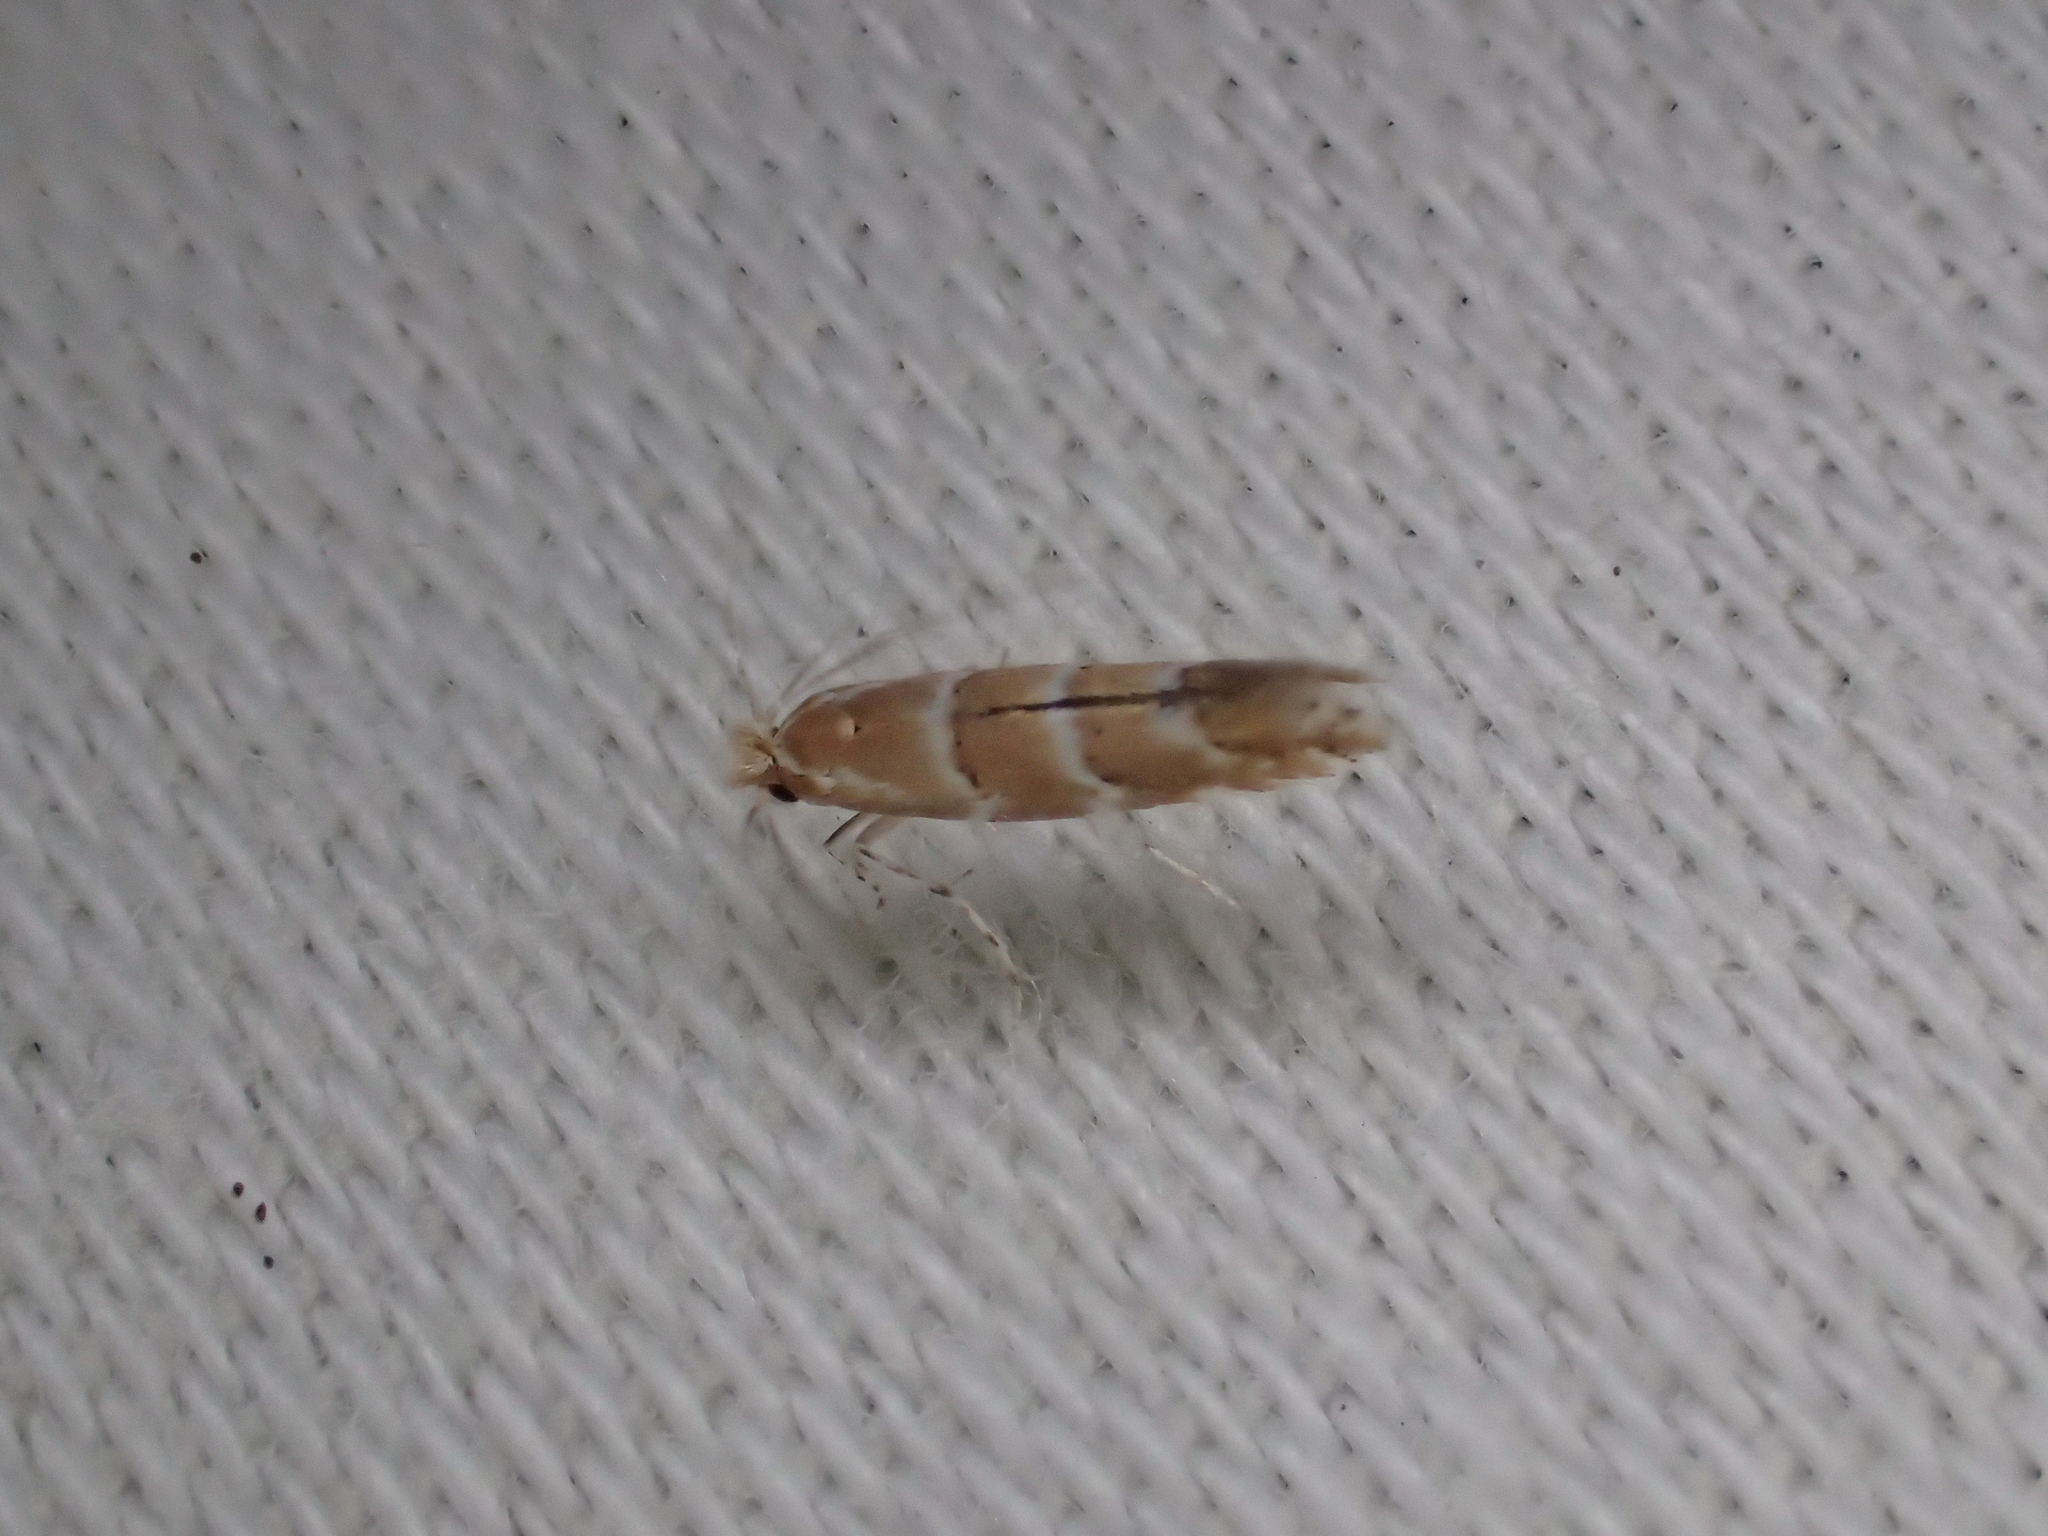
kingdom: Animalia
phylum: Arthropoda
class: Insecta
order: Lepidoptera
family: Gracillariidae
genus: Cameraria
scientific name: Cameraria ohridella
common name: Horse-chestnut leaf-miner
